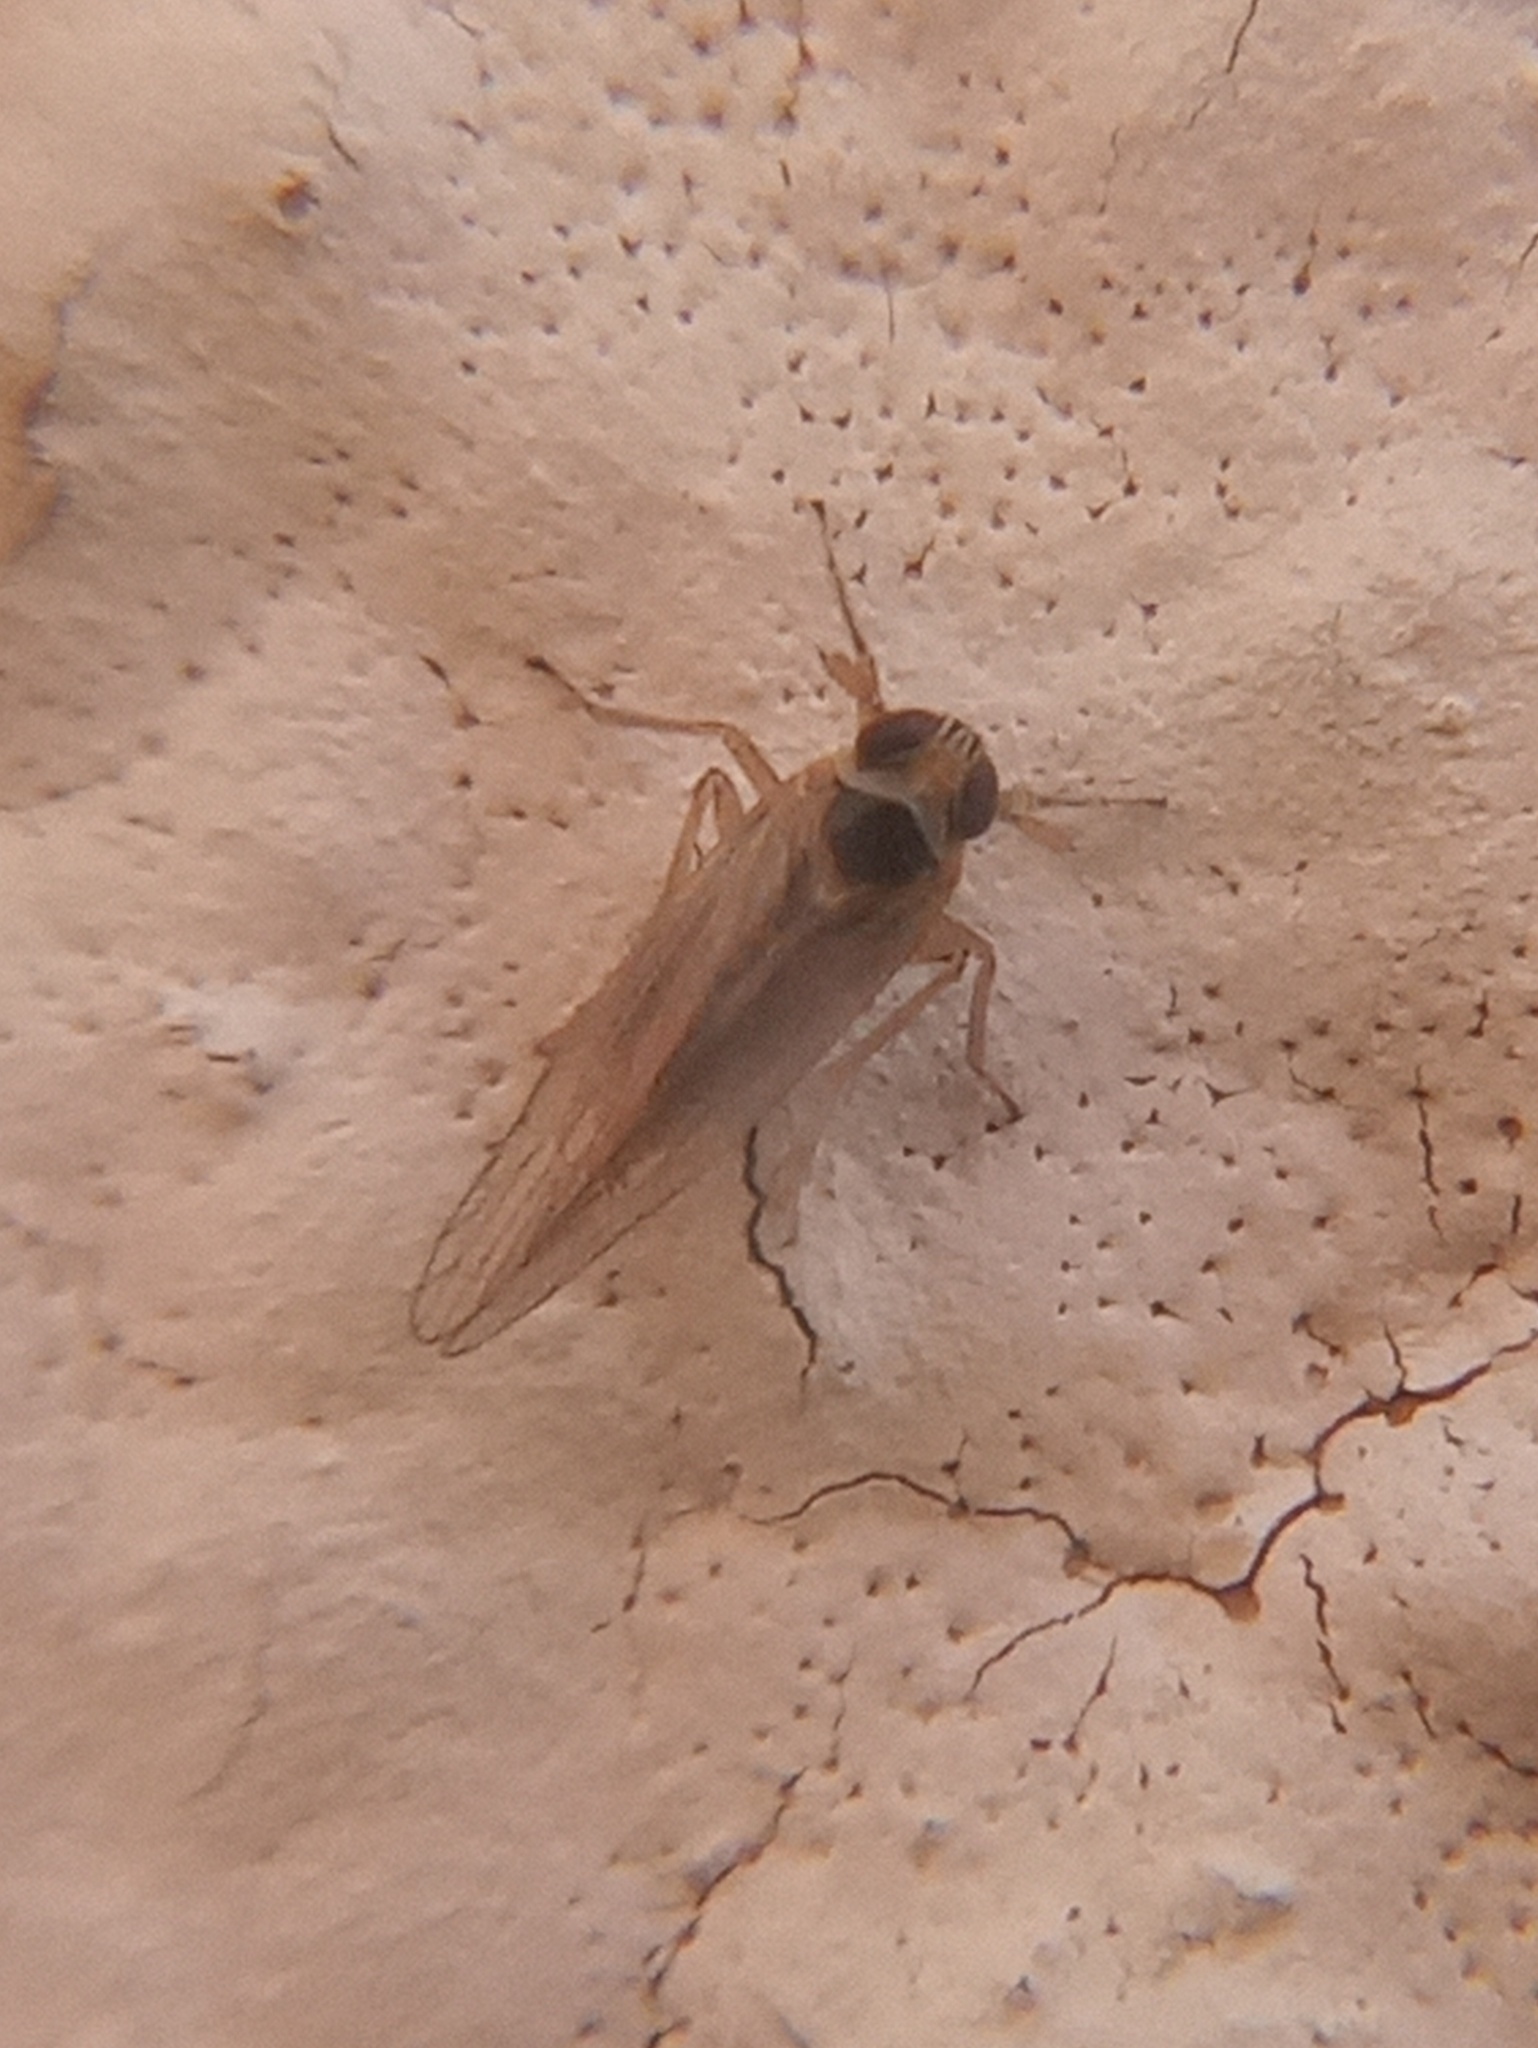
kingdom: Animalia
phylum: Arthropoda
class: Insecta
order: Hemiptera
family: Delphacidae
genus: Chionomus
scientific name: Chionomus havanae
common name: Delphacid planthopper
